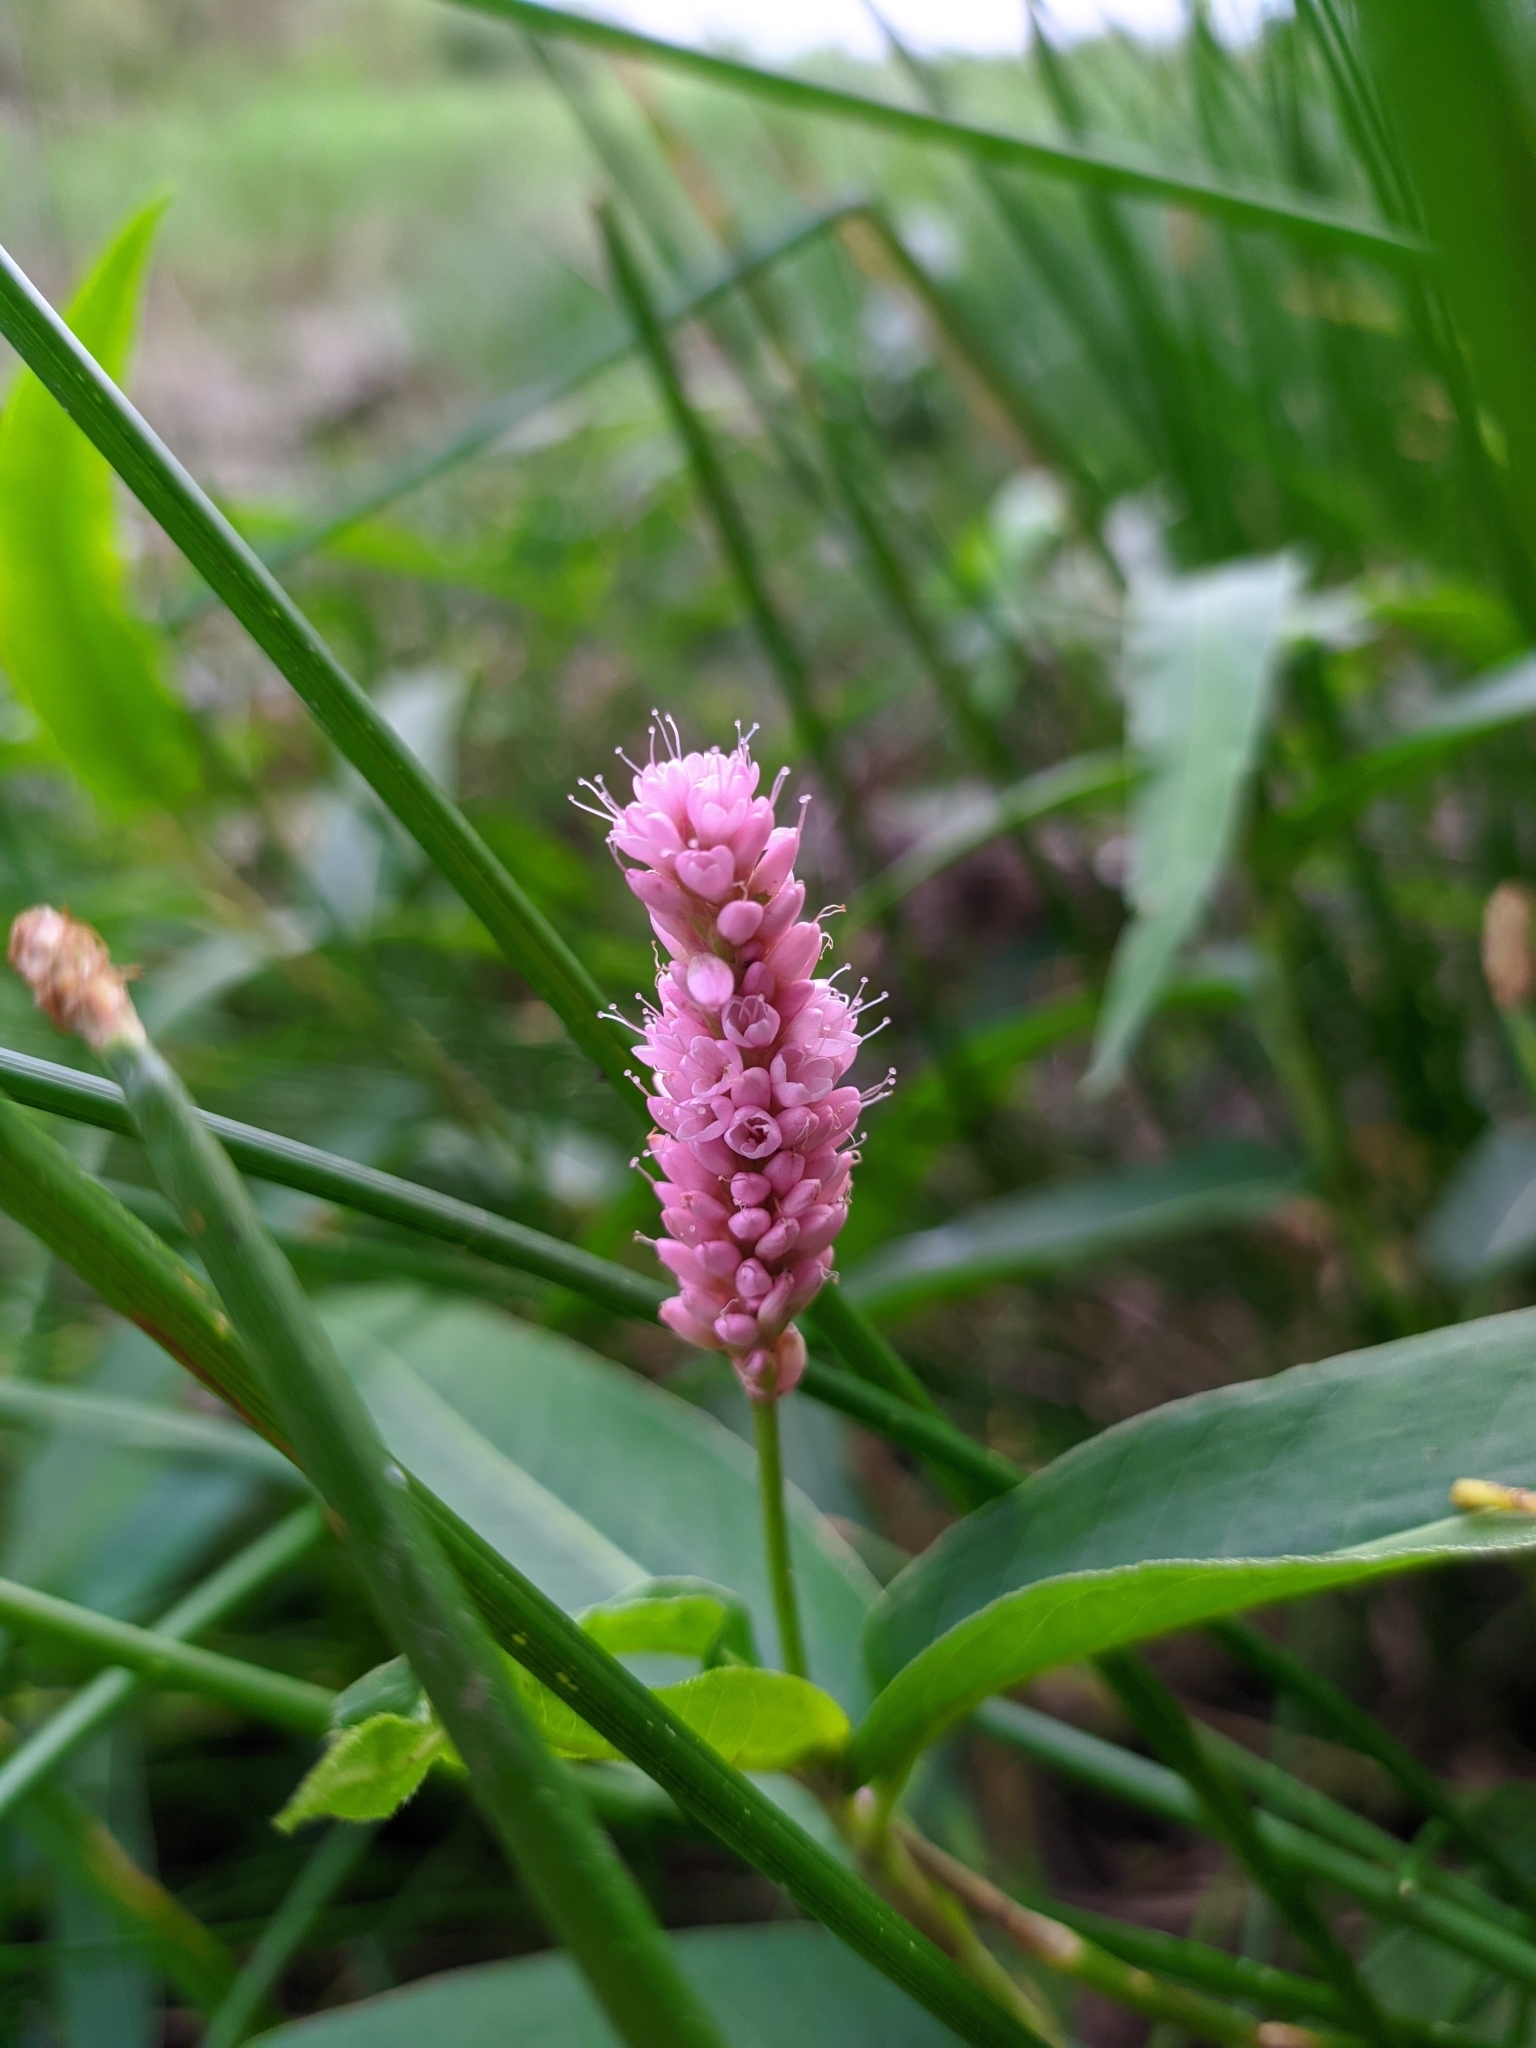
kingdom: Plantae
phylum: Tracheophyta
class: Magnoliopsida
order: Caryophyllales
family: Polygonaceae
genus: Persicaria
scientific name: Persicaria amphibia
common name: Amphibious bistort
